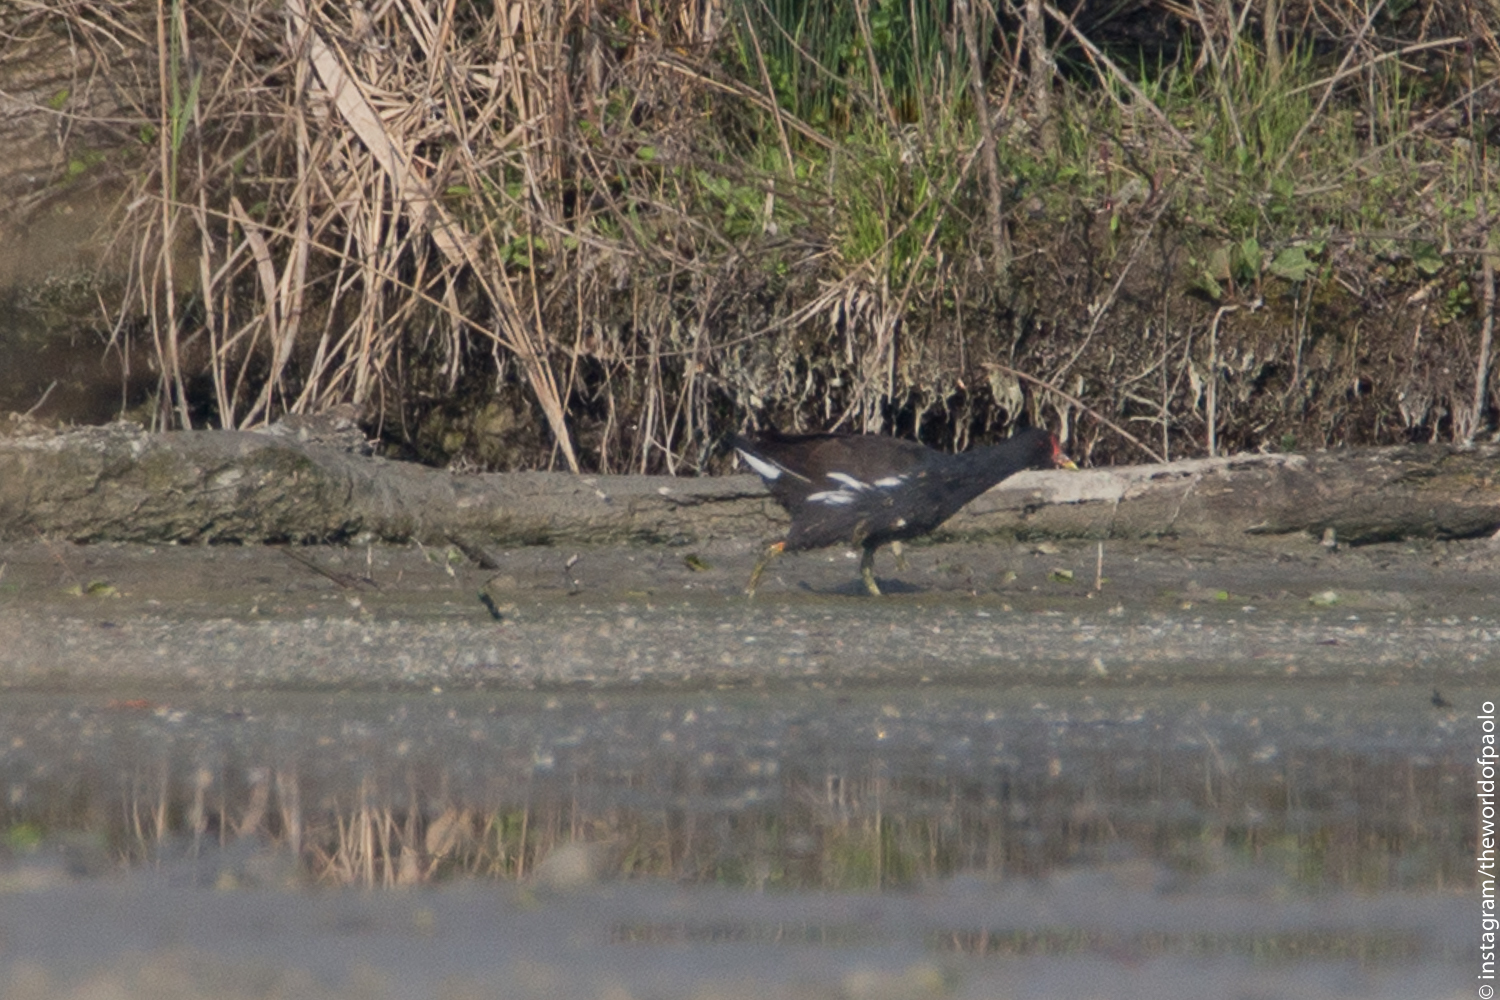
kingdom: Animalia
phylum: Chordata
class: Aves
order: Gruiformes
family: Rallidae
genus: Gallinula
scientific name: Gallinula chloropus
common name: Common moorhen
